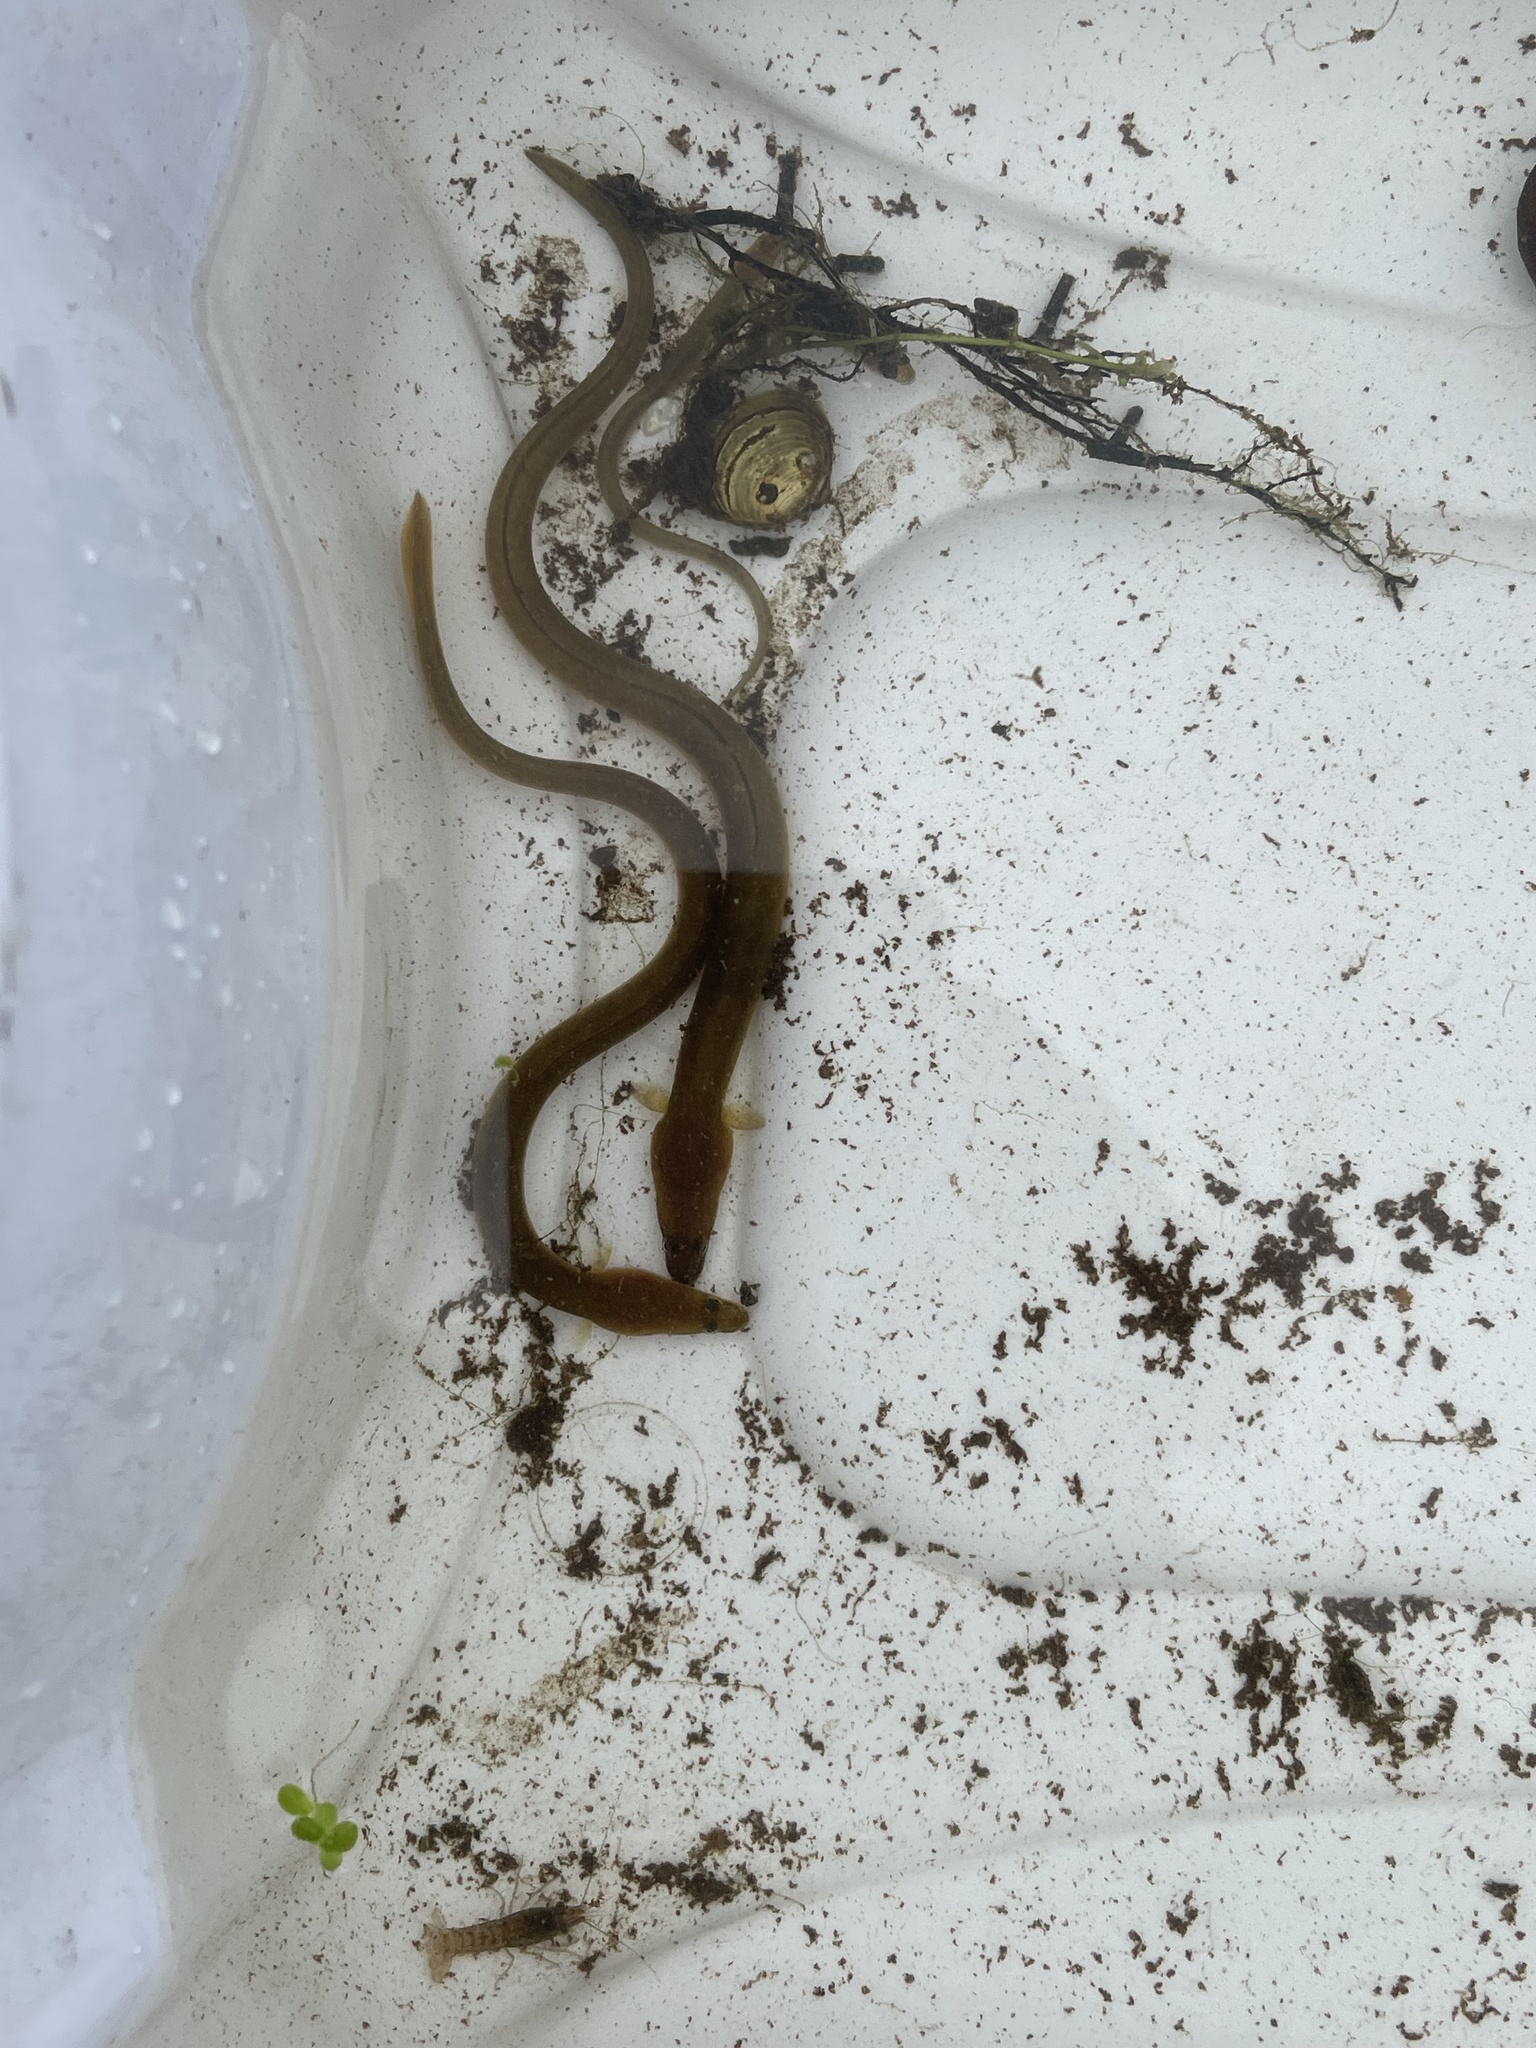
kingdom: Animalia
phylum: Chordata
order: Anguilliformes
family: Anguillidae
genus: Anguilla
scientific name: Anguilla rostrata
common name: American eel
